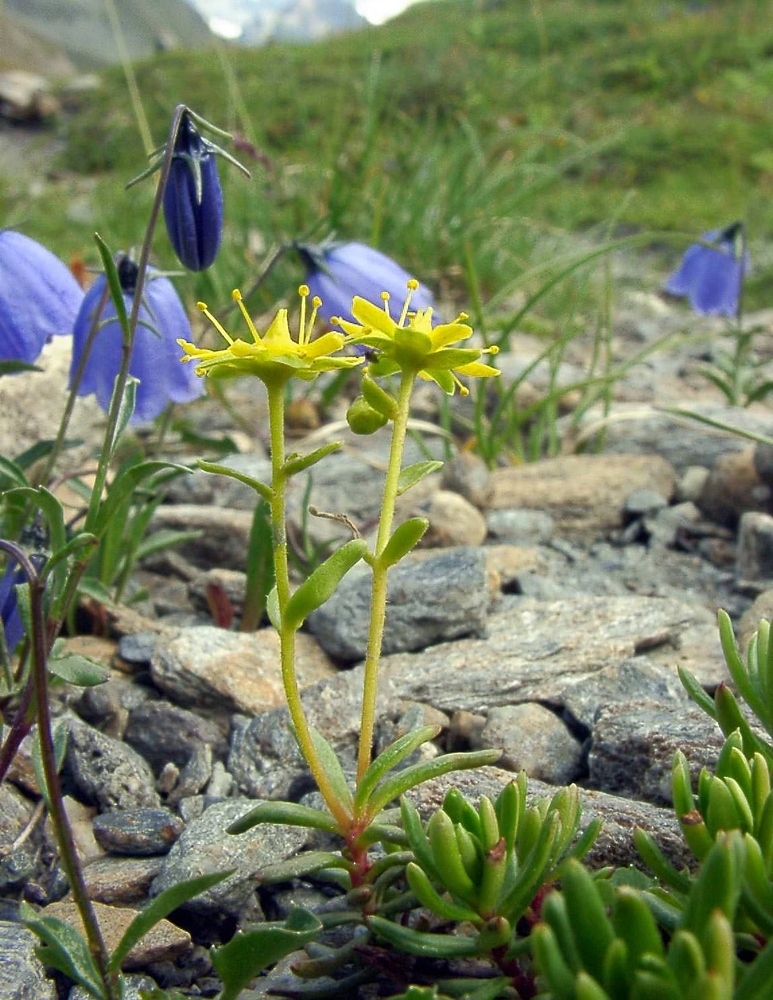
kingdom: Plantae
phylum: Tracheophyta
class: Magnoliopsida
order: Saxifragales
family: Saxifragaceae
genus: Saxifraga
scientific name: Saxifraga aizoides
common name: Yellow mountain saxifrage
